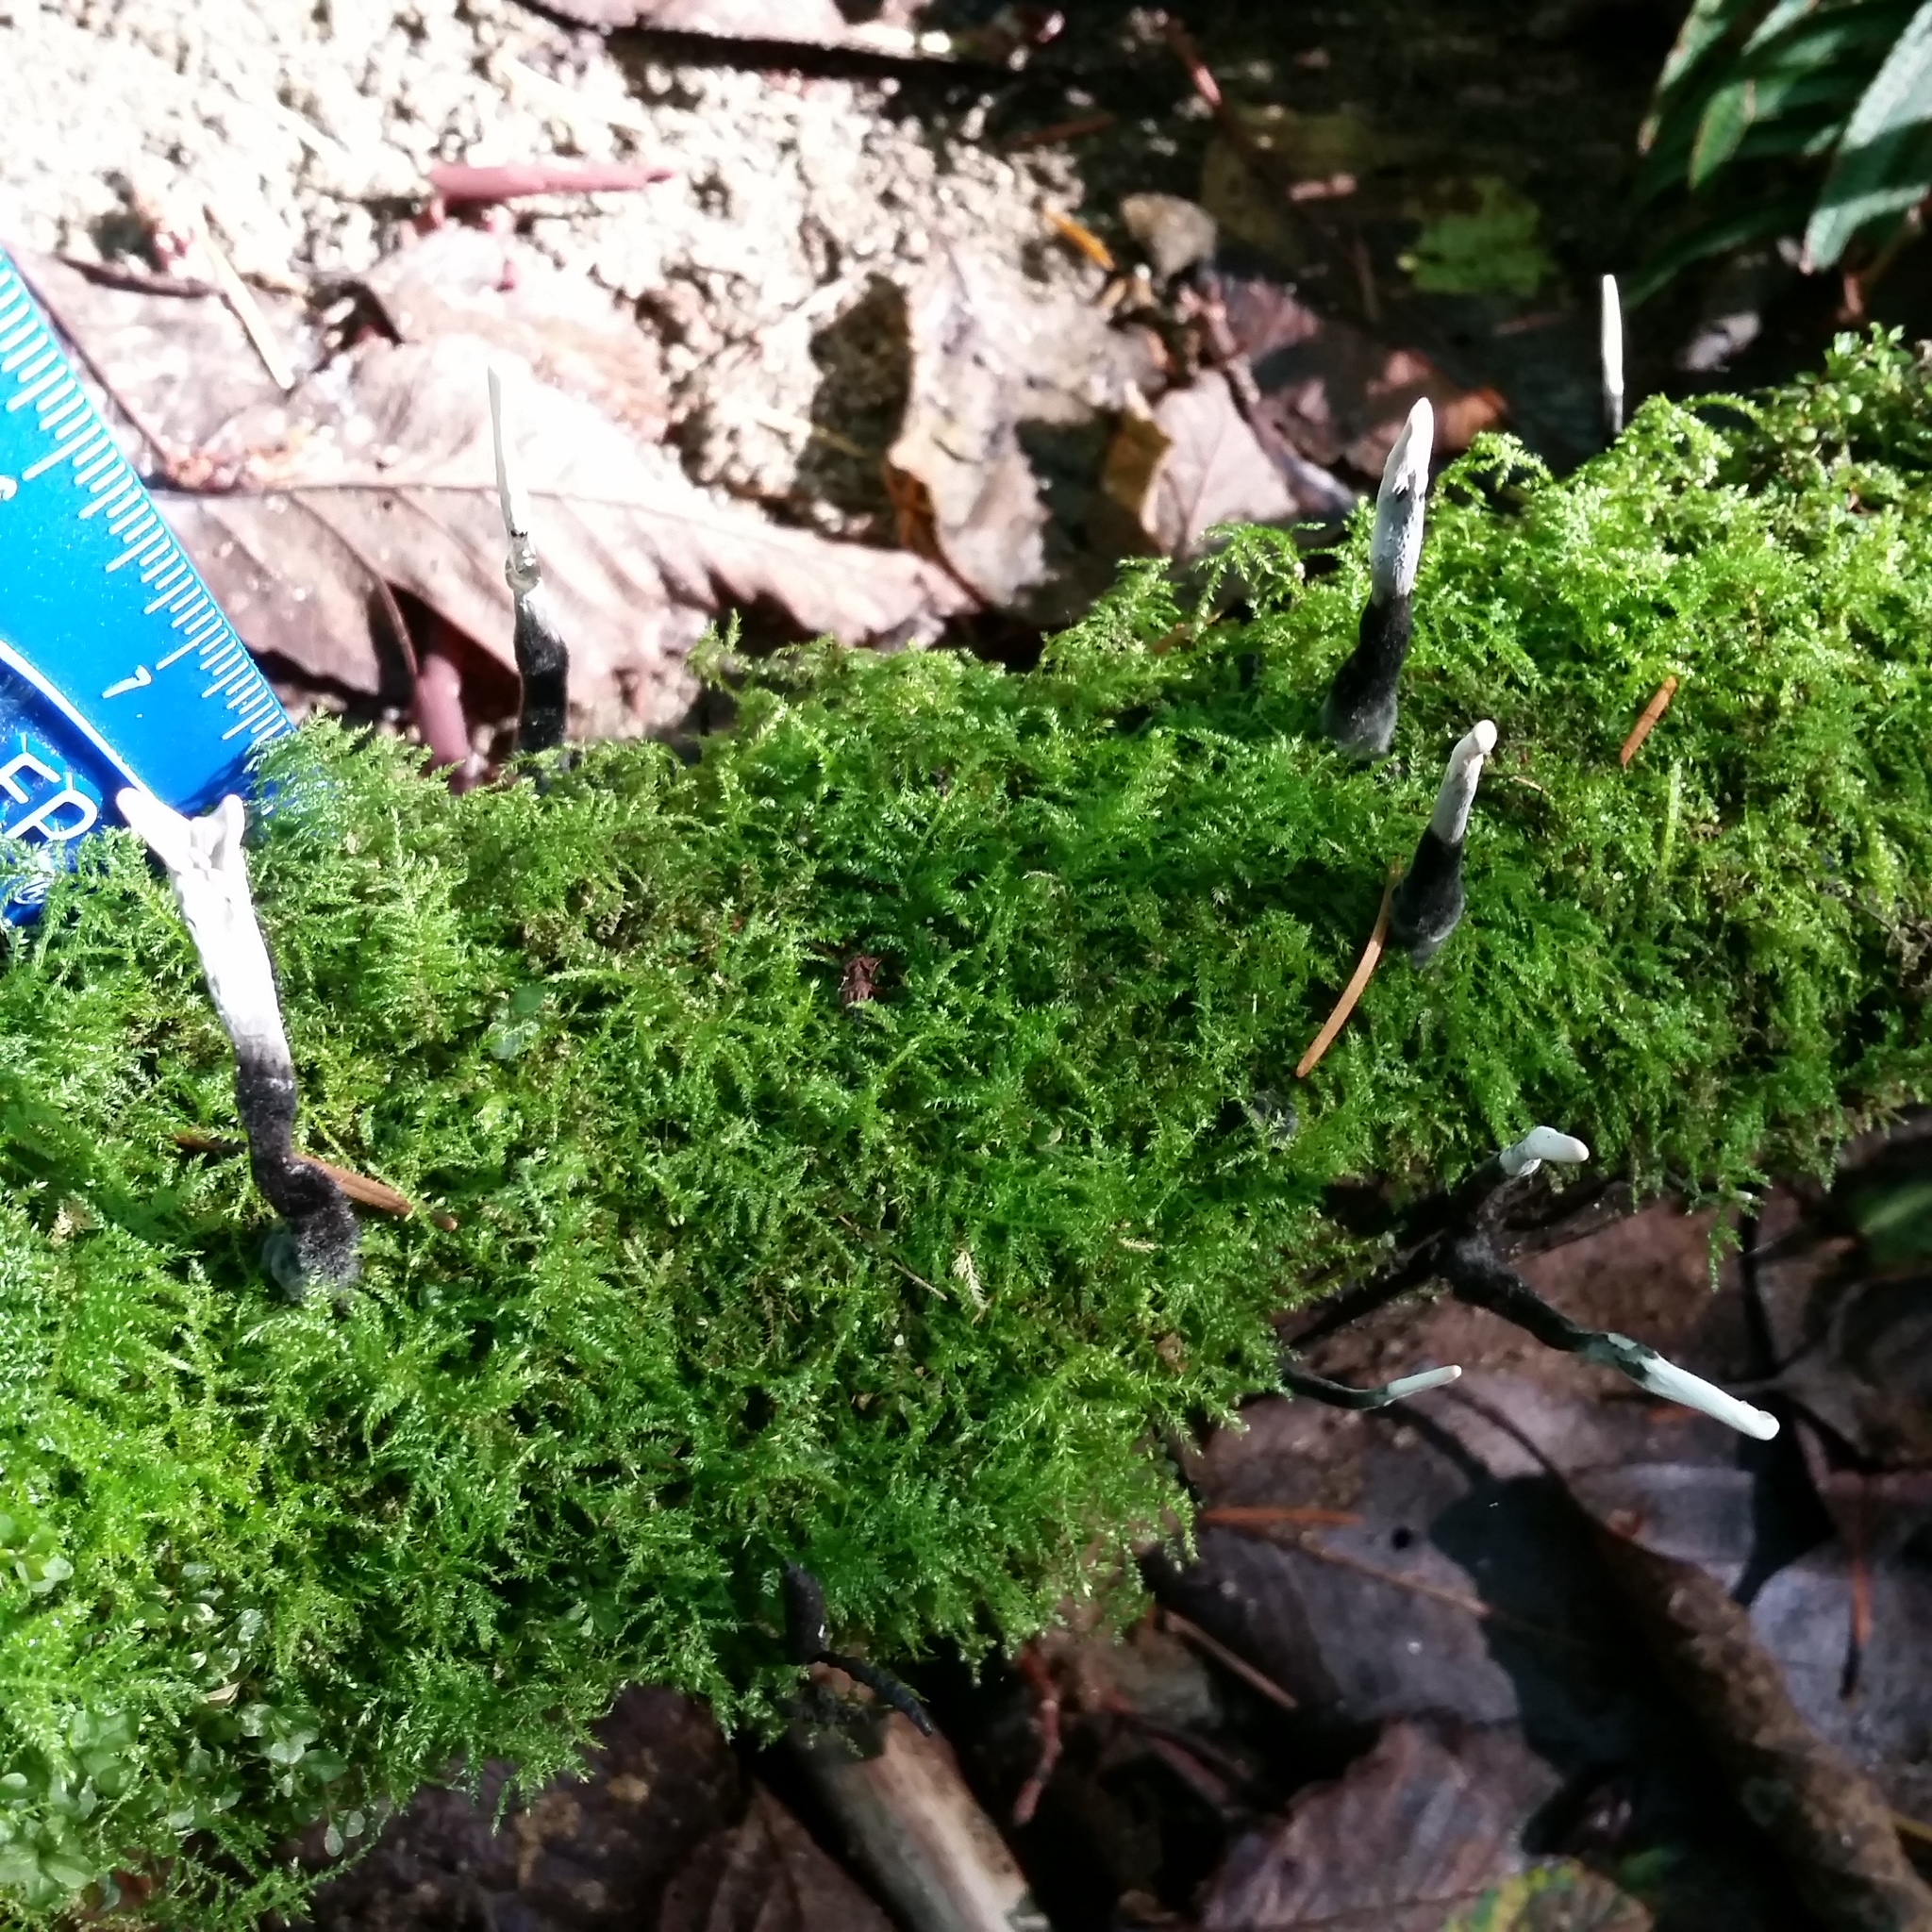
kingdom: Fungi
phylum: Ascomycota
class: Sordariomycetes
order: Xylariales
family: Xylariaceae
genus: Xylaria
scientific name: Xylaria hypoxylon
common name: Candle-snuff fungus
